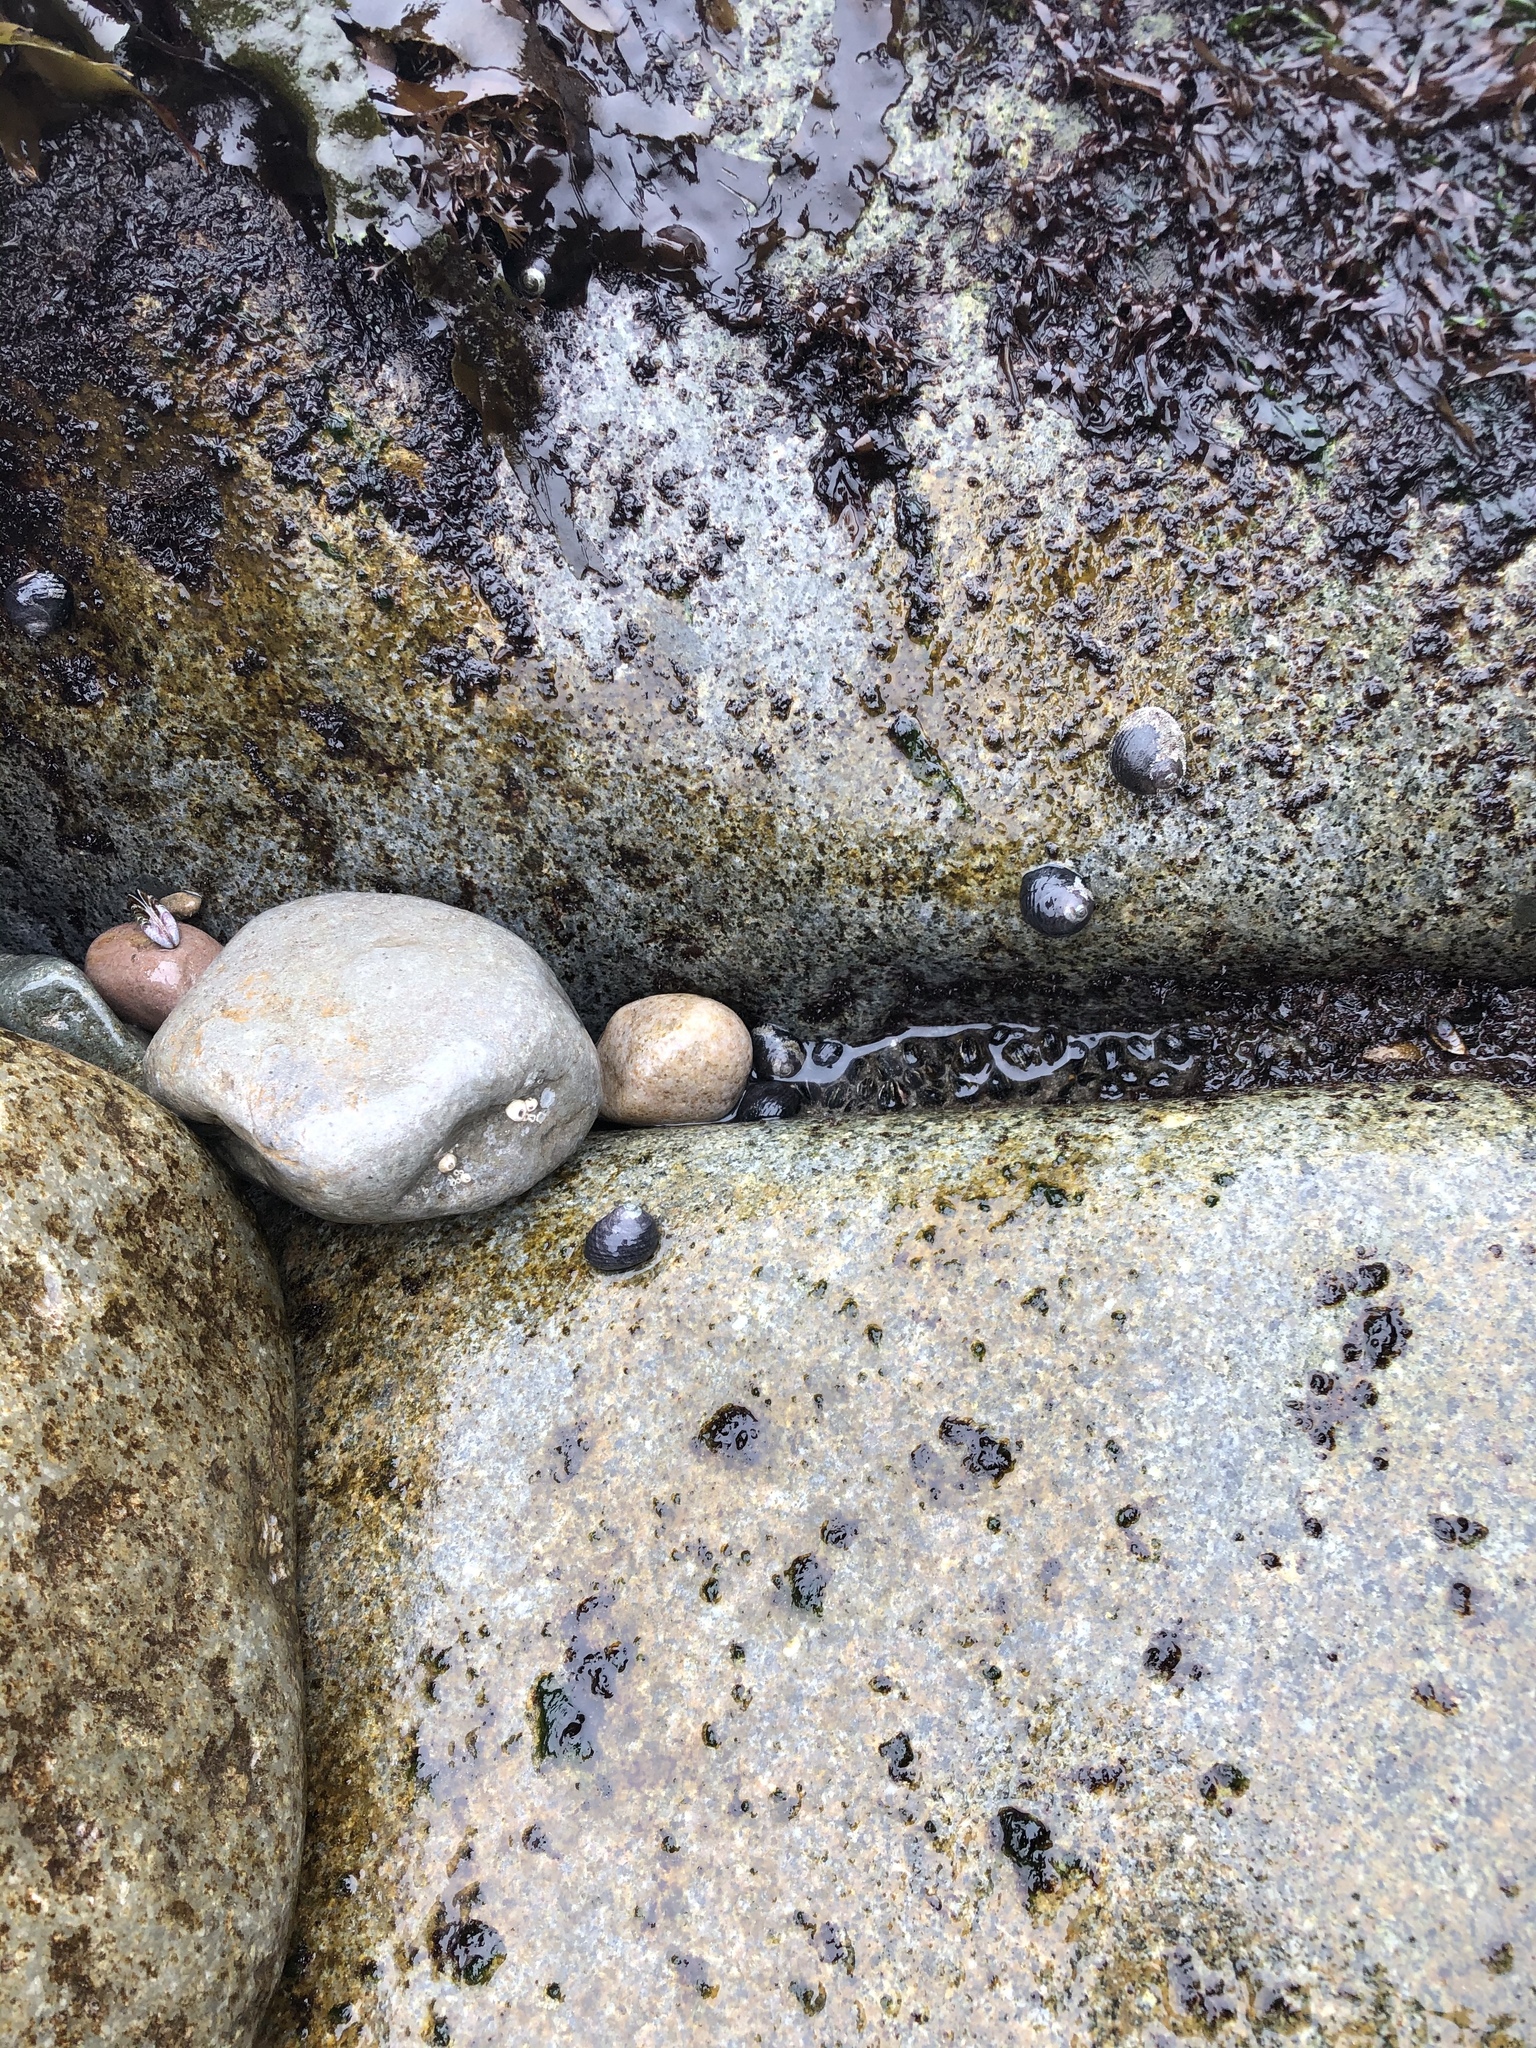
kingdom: Animalia
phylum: Mollusca
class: Gastropoda
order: Trochida
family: Turbinidae
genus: Prisogaster
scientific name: Prisogaster niger
